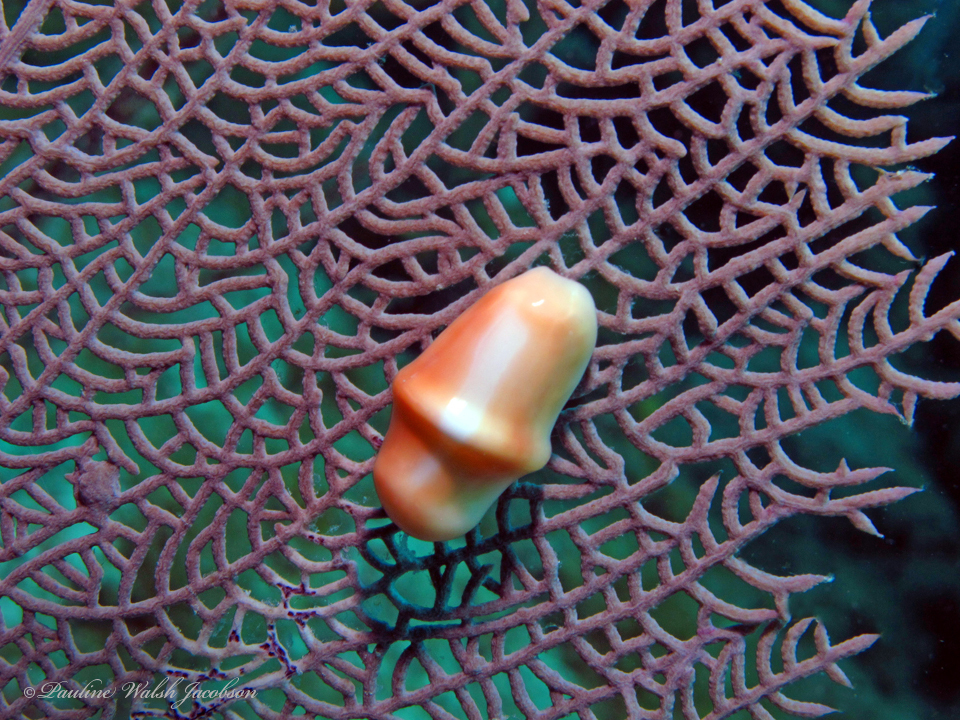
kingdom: Animalia
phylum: Mollusca
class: Gastropoda
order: Littorinimorpha
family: Ovulidae
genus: Cyphoma
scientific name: Cyphoma gibbosum
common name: Flamingo tongue
